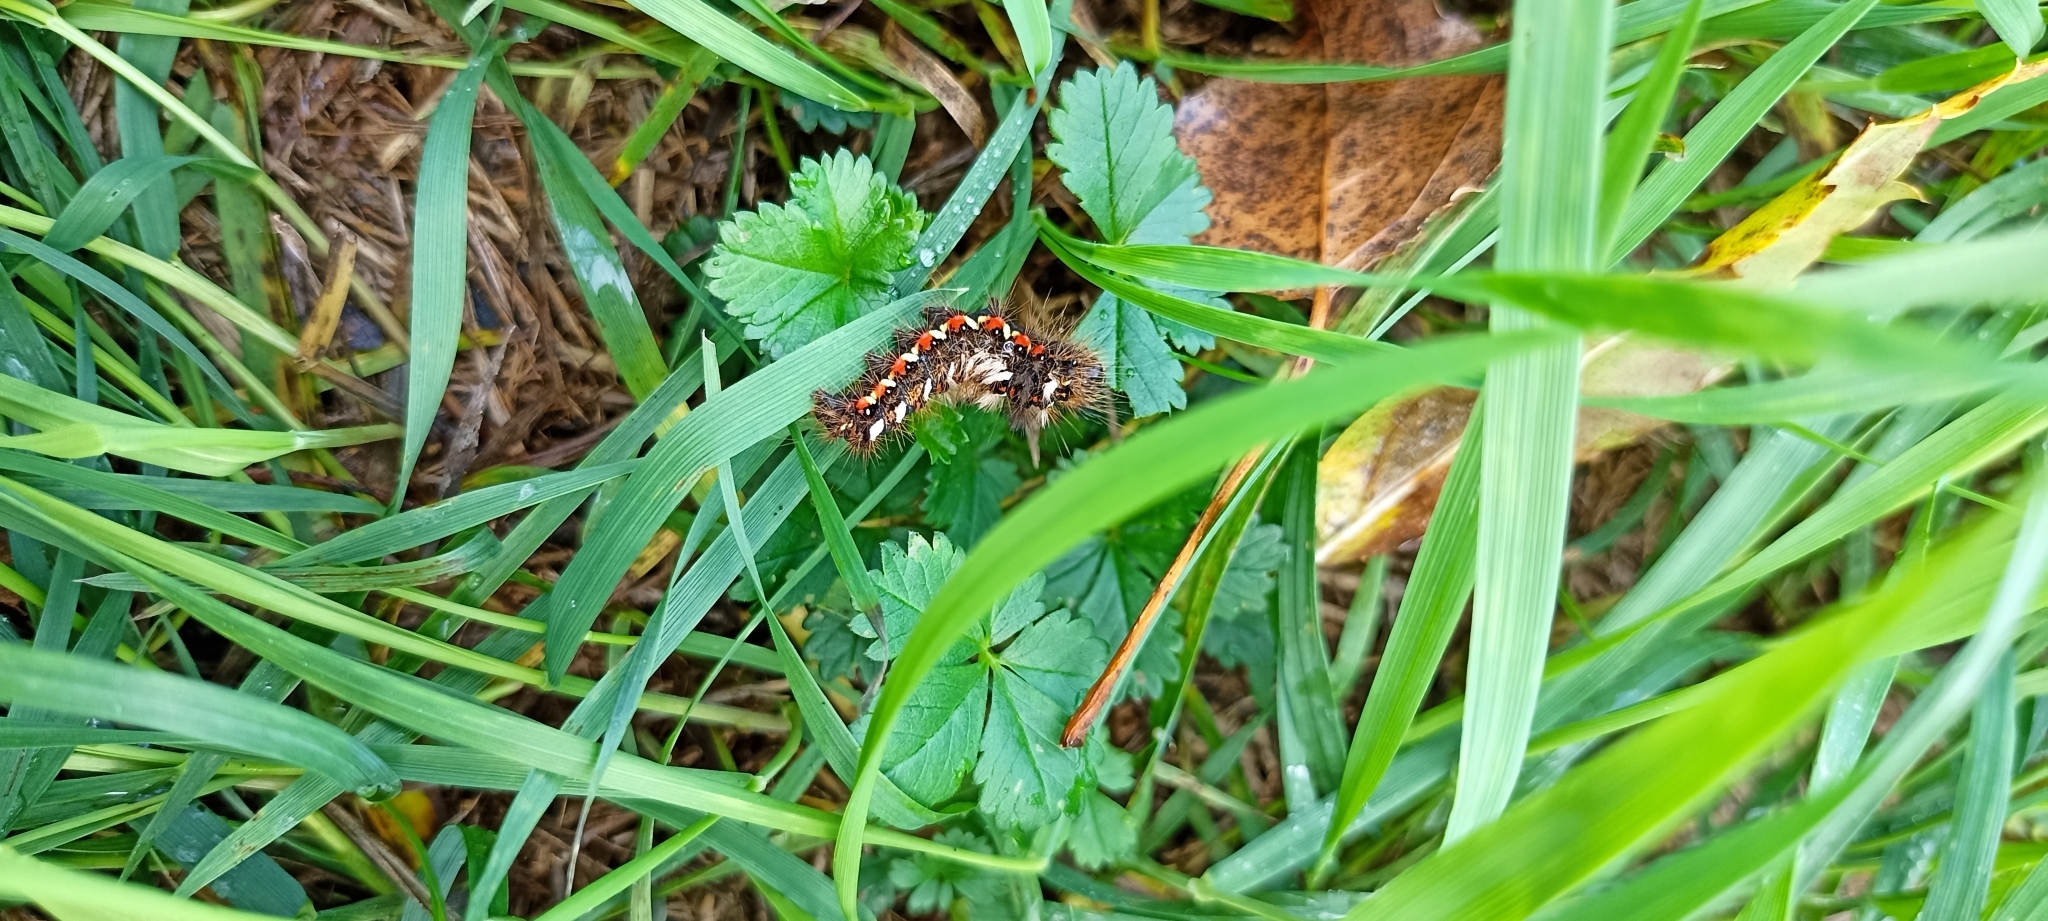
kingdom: Animalia
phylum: Arthropoda
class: Insecta
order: Lepidoptera
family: Noctuidae
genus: Acronicta
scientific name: Acronicta rumicis
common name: Knot grass
